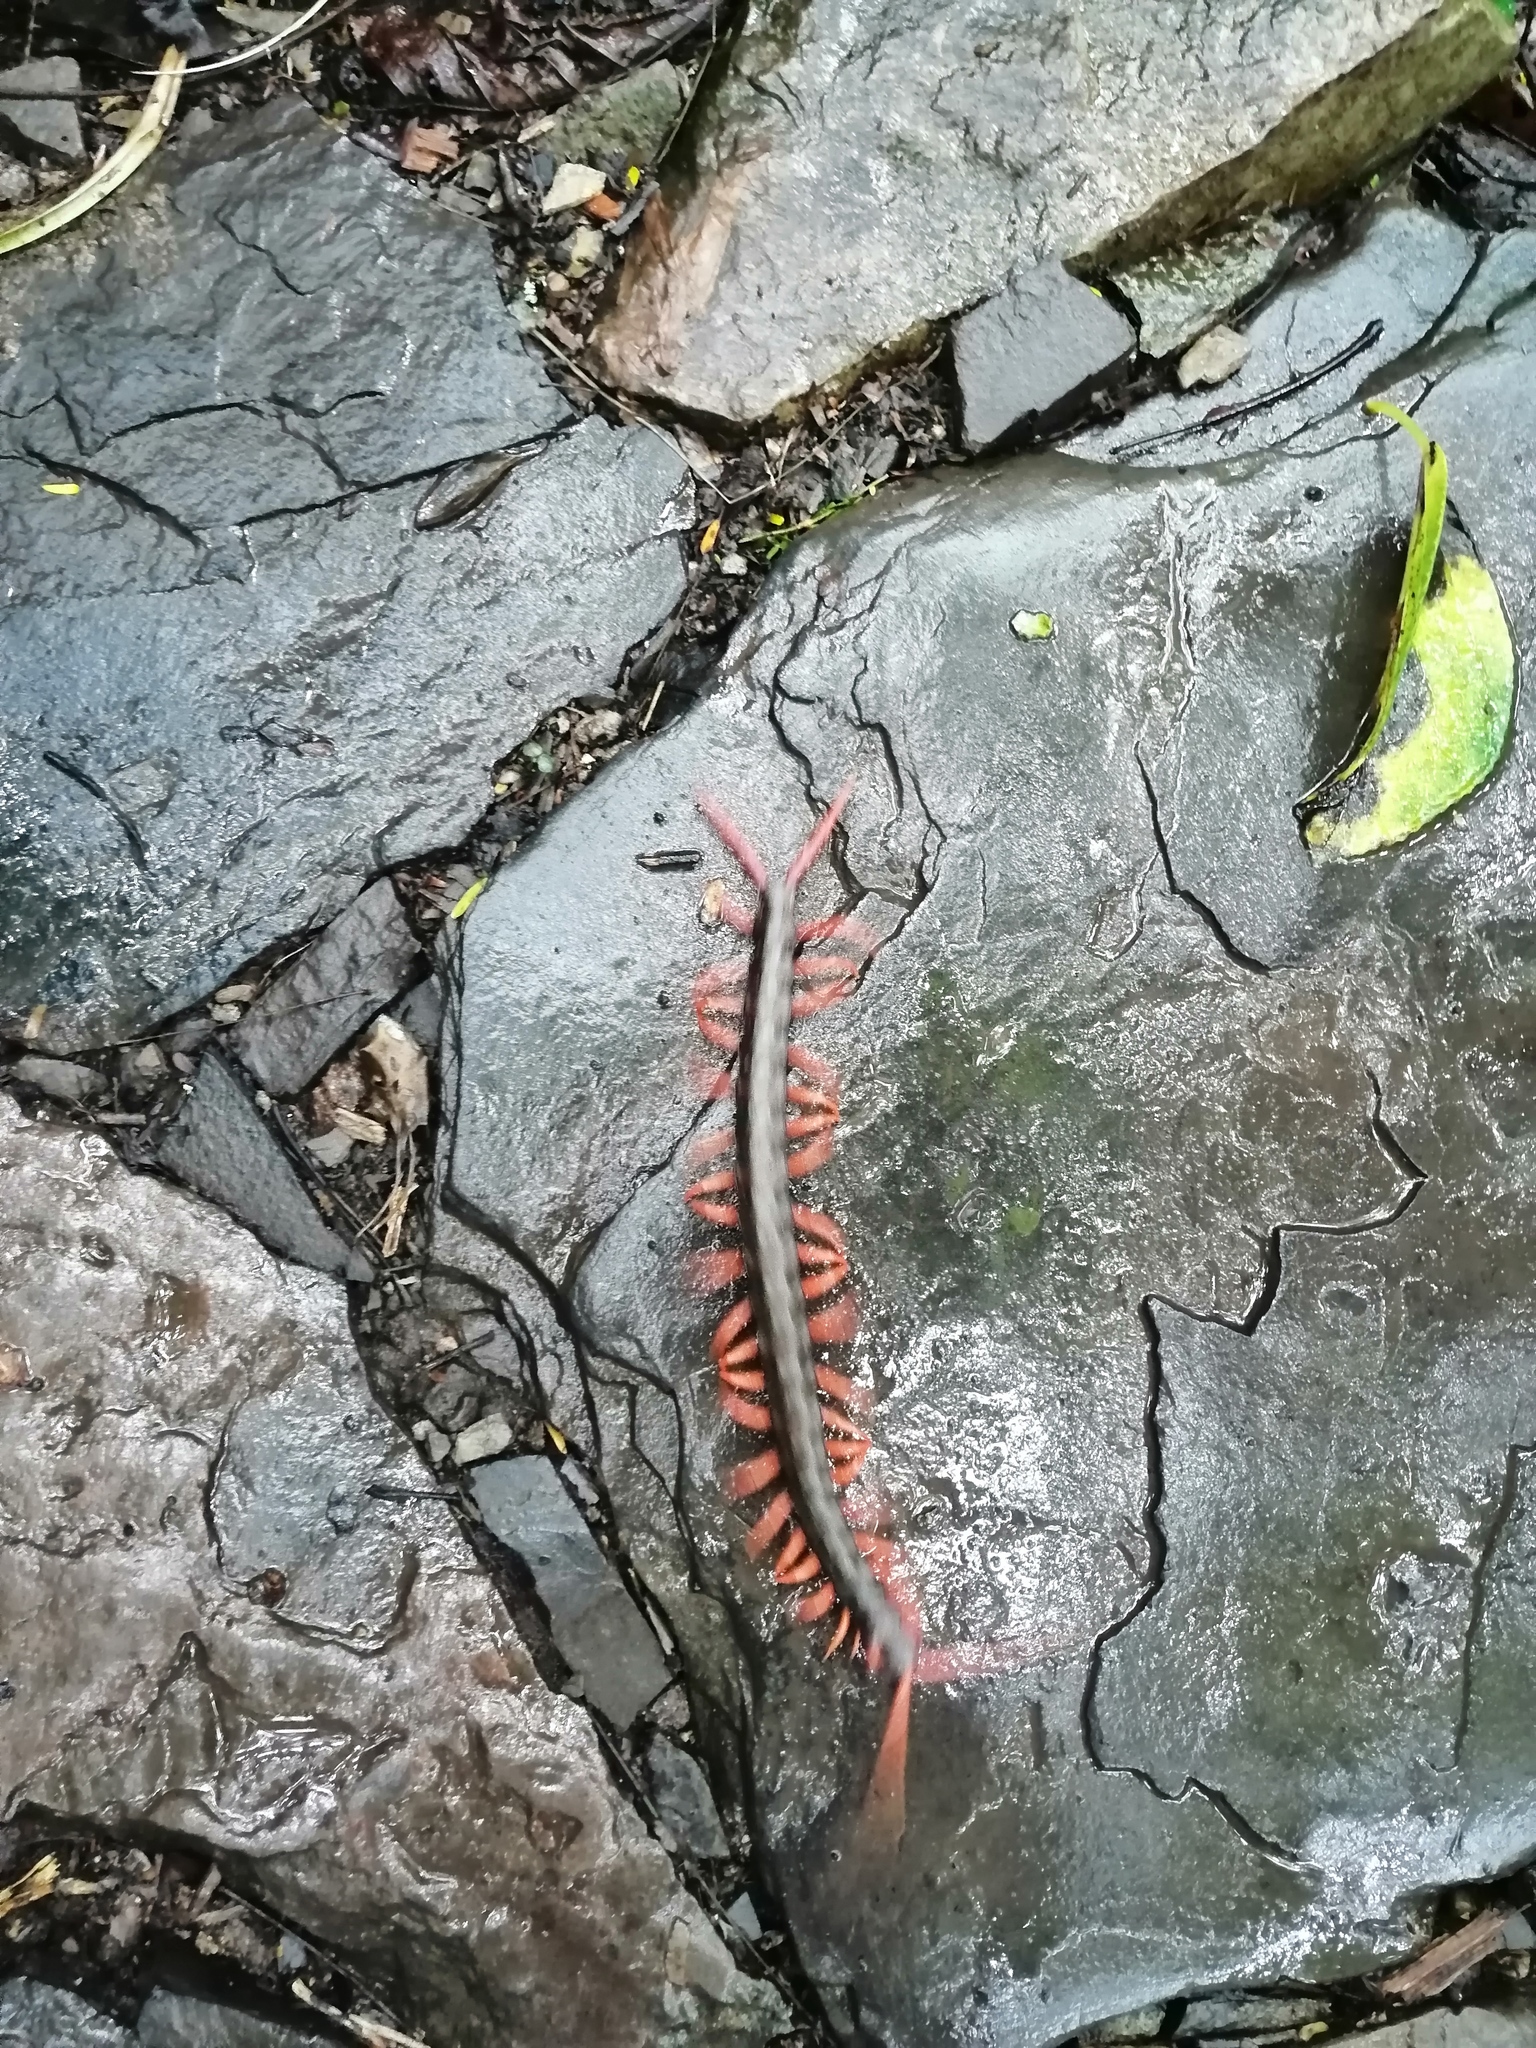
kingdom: Animalia
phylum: Arthropoda
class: Chilopoda
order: Scolopendromorpha
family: Scolopendridae
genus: Scolopendra
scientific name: Scolopendra sumichrasti
